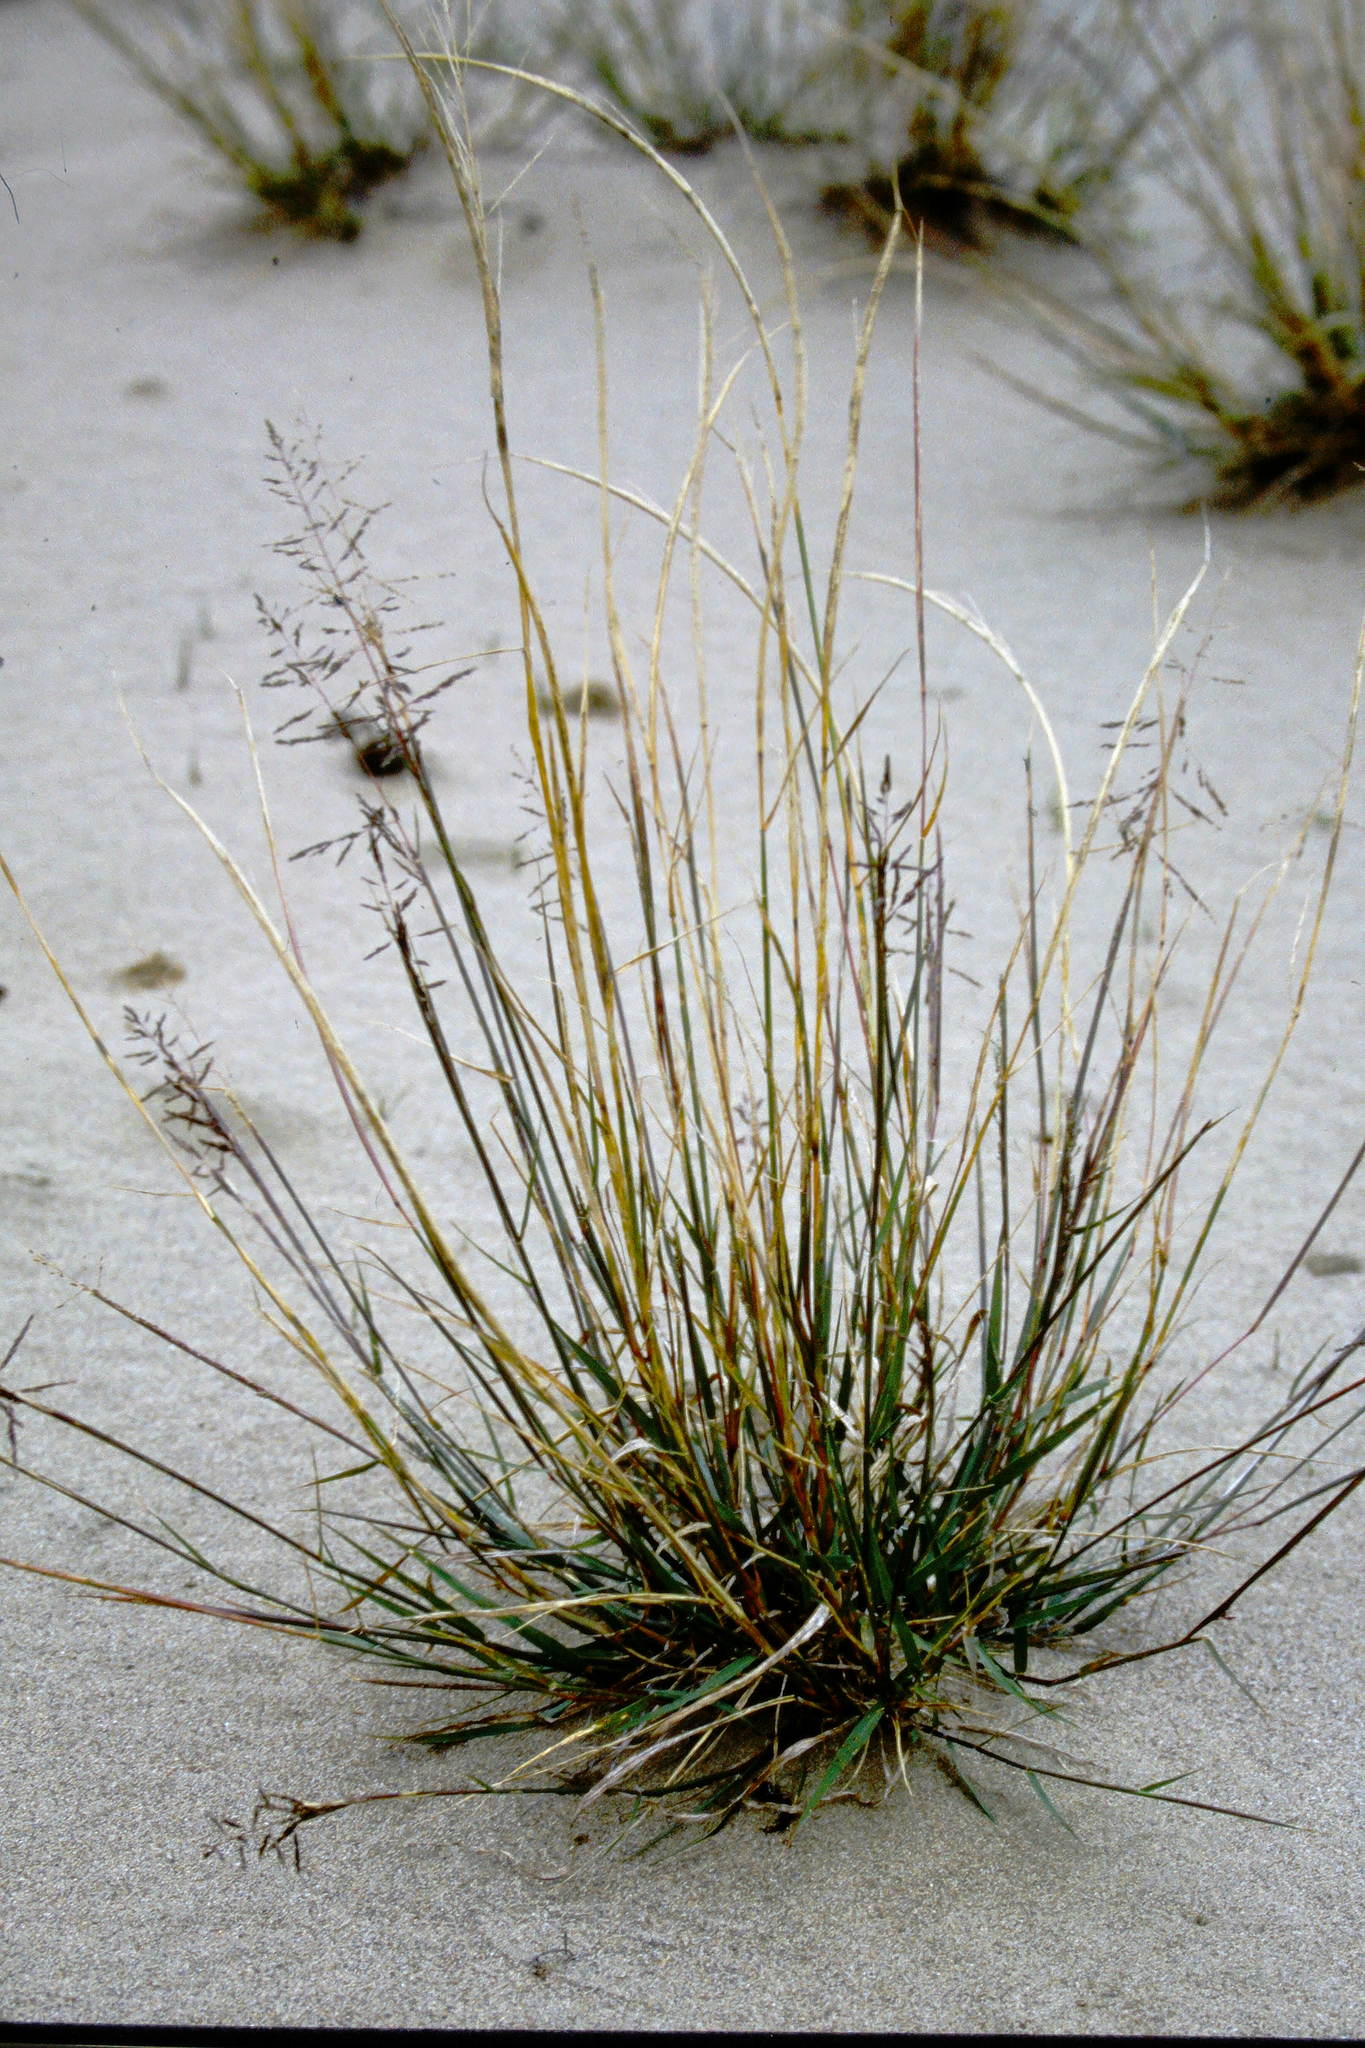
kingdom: Plantae
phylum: Tracheophyta
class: Liliopsida
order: Poales
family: Poaceae
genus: Sporobolus
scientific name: Sporobolus cryptandrus
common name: Sand dropseed
